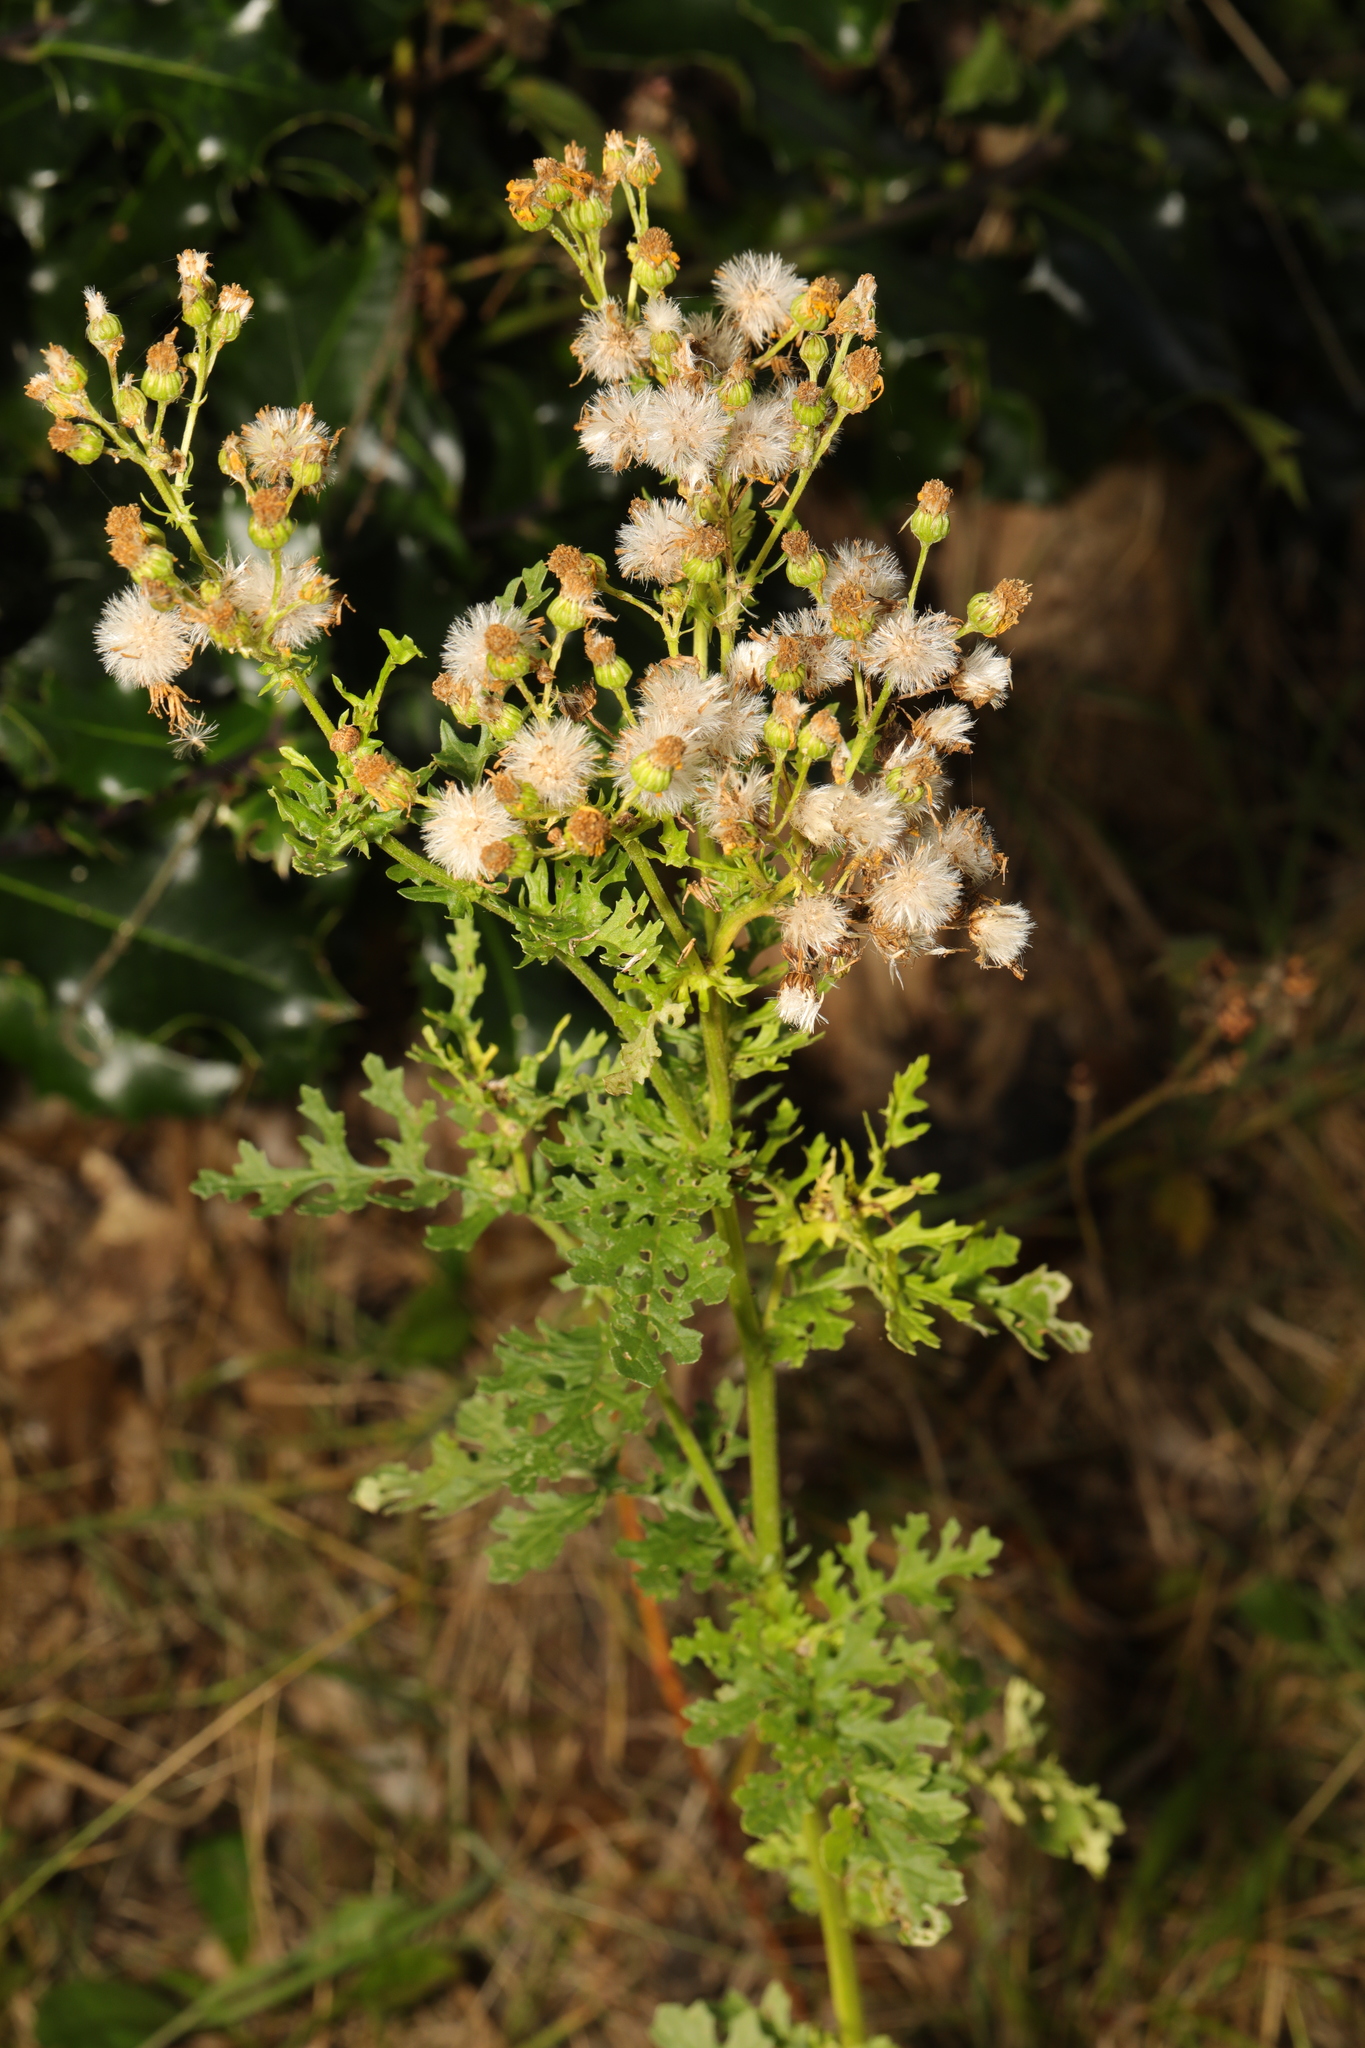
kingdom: Plantae
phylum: Tracheophyta
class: Magnoliopsida
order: Asterales
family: Asteraceae
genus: Jacobaea
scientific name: Jacobaea vulgaris
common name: Stinking willie
